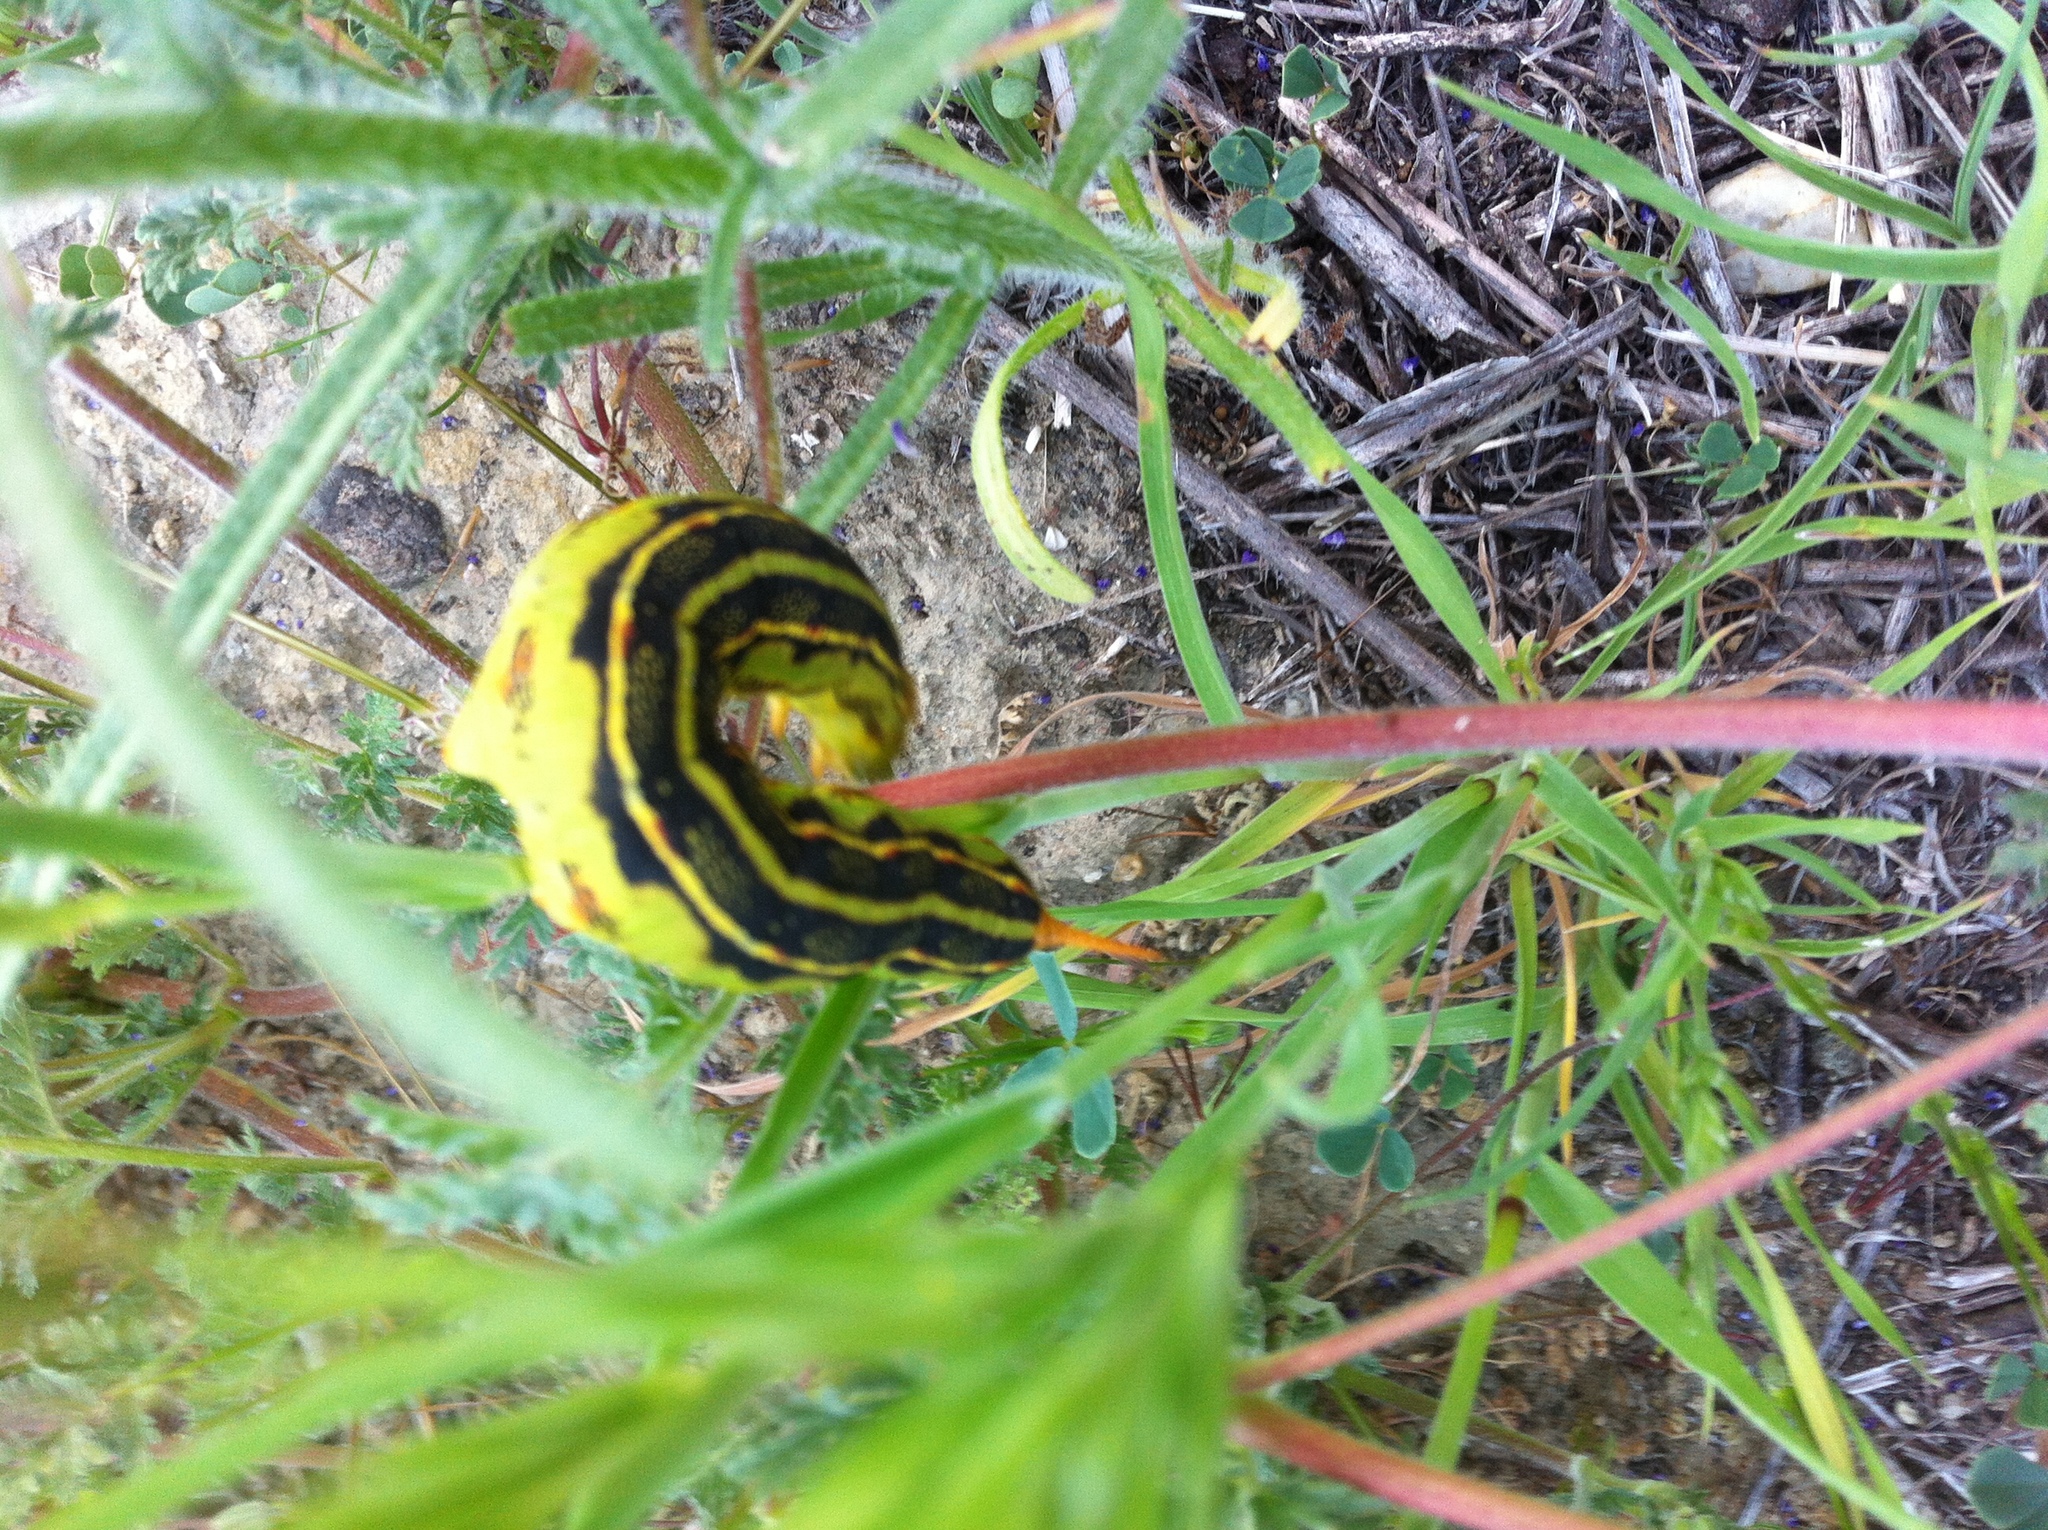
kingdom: Animalia
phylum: Arthropoda
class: Insecta
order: Lepidoptera
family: Sphingidae
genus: Hyles
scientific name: Hyles lineata
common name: White-lined sphinx
